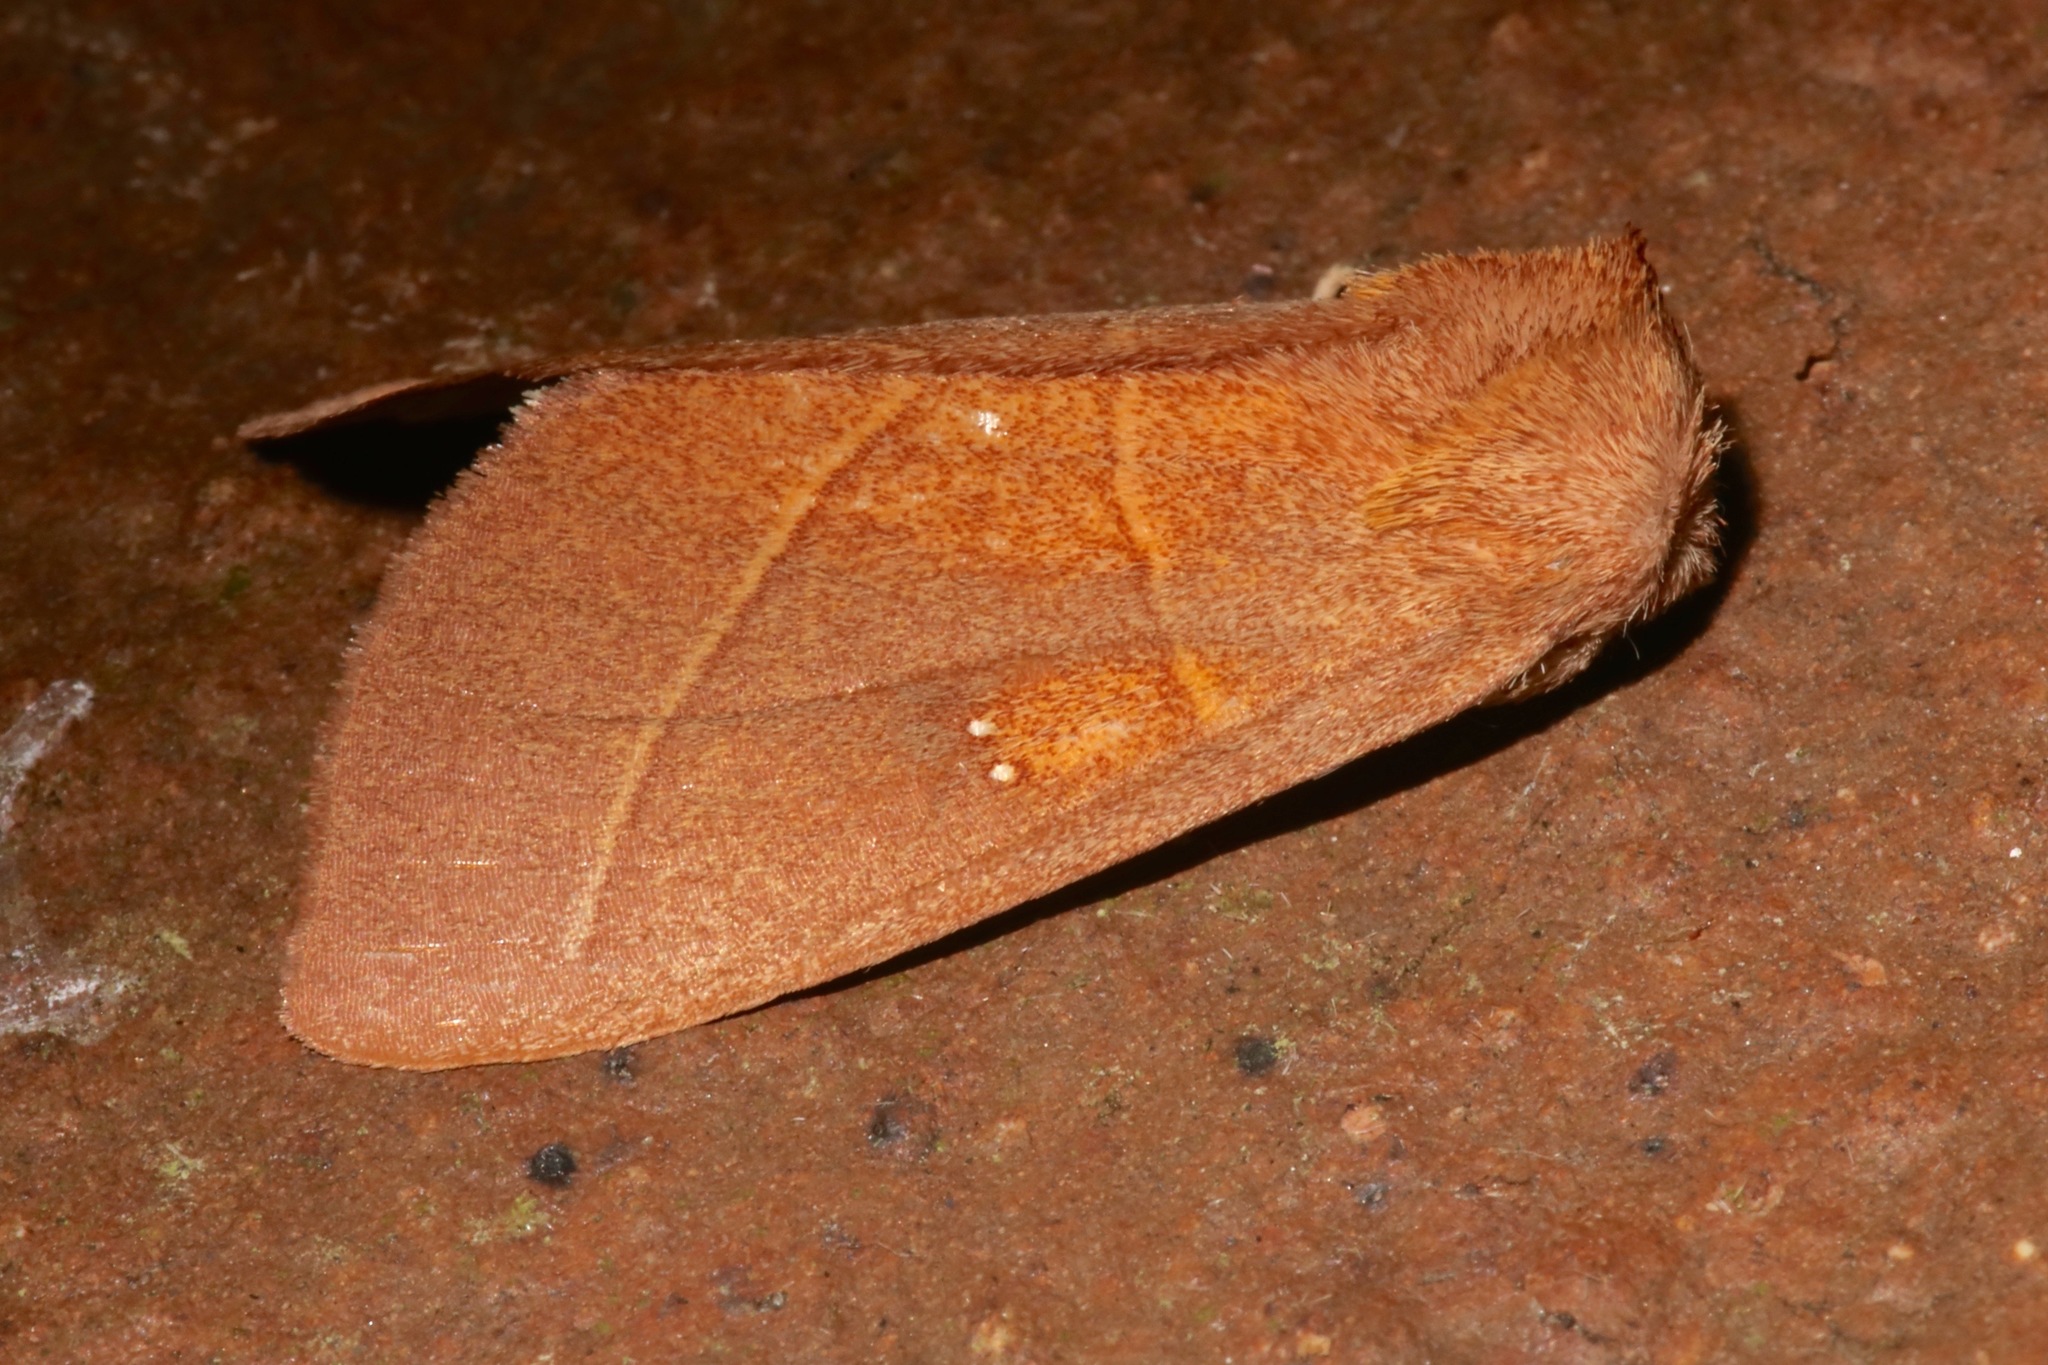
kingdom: Animalia
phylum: Arthropoda
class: Insecta
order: Lepidoptera
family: Notodontidae
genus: Nadata
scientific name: Nadata gibbosa
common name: White-dotted prominent
